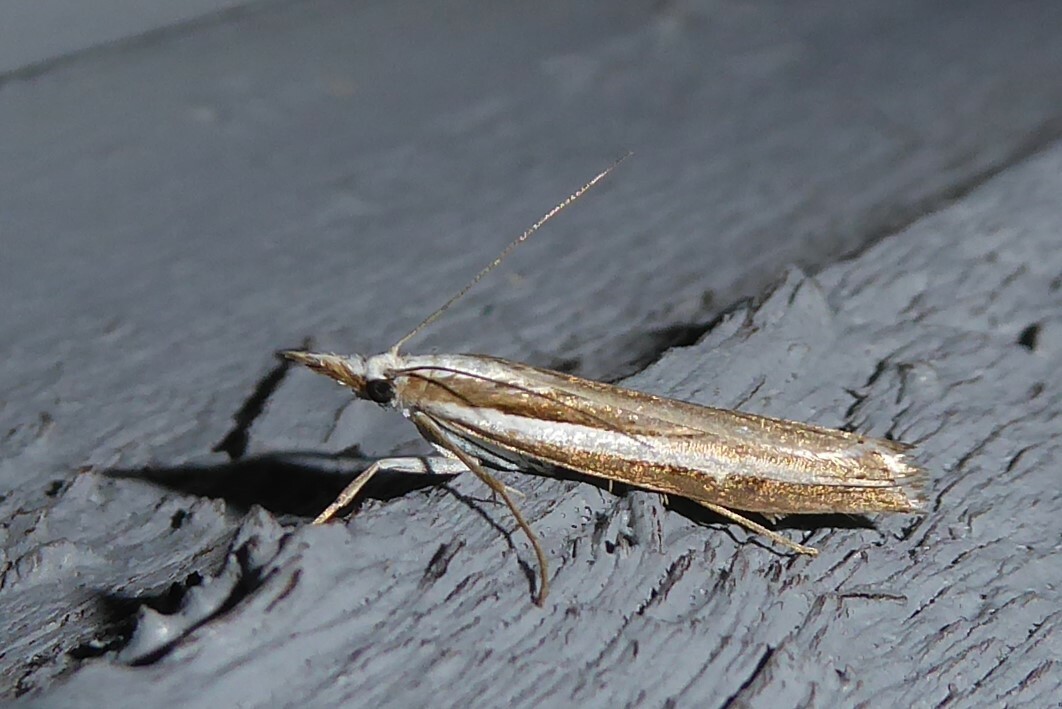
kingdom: Animalia
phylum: Arthropoda
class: Insecta
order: Lepidoptera
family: Crambidae
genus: Orocrambus
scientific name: Orocrambus vittellus
